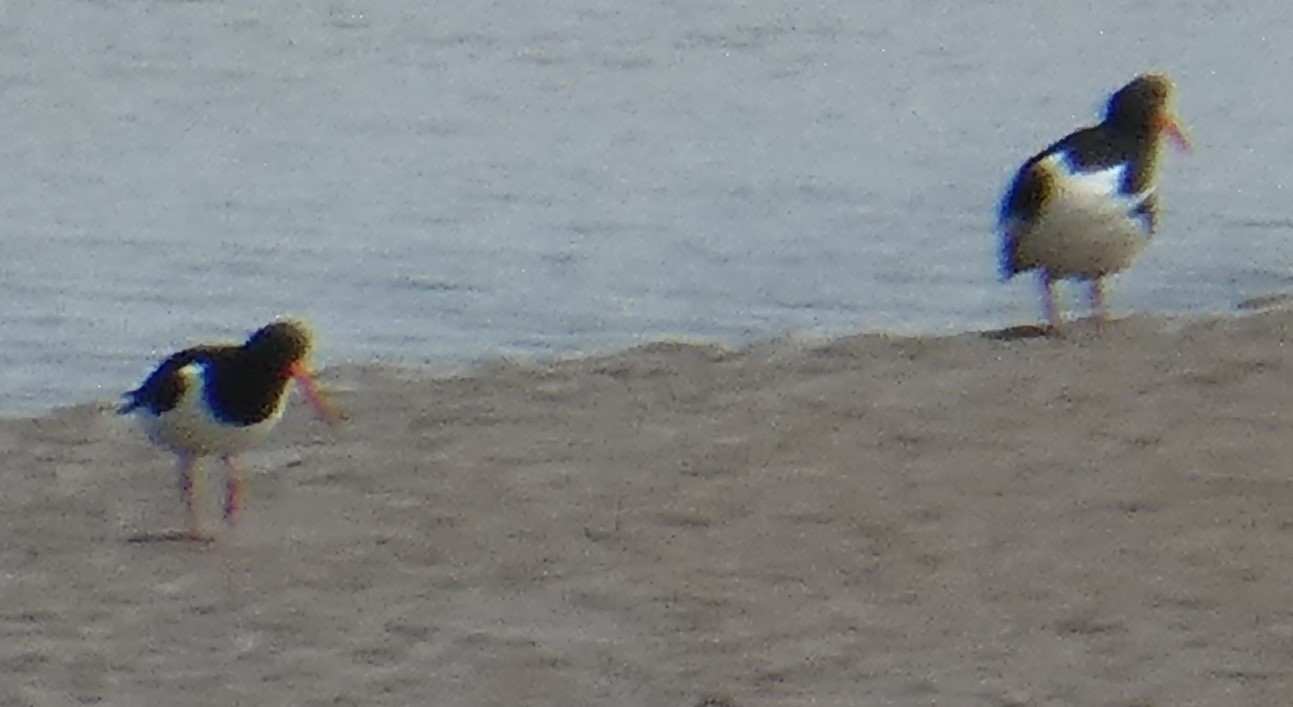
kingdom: Animalia
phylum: Chordata
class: Aves
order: Charadriiformes
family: Haematopodidae
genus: Haematopus
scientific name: Haematopus ostralegus
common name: Eurasian oystercatcher
